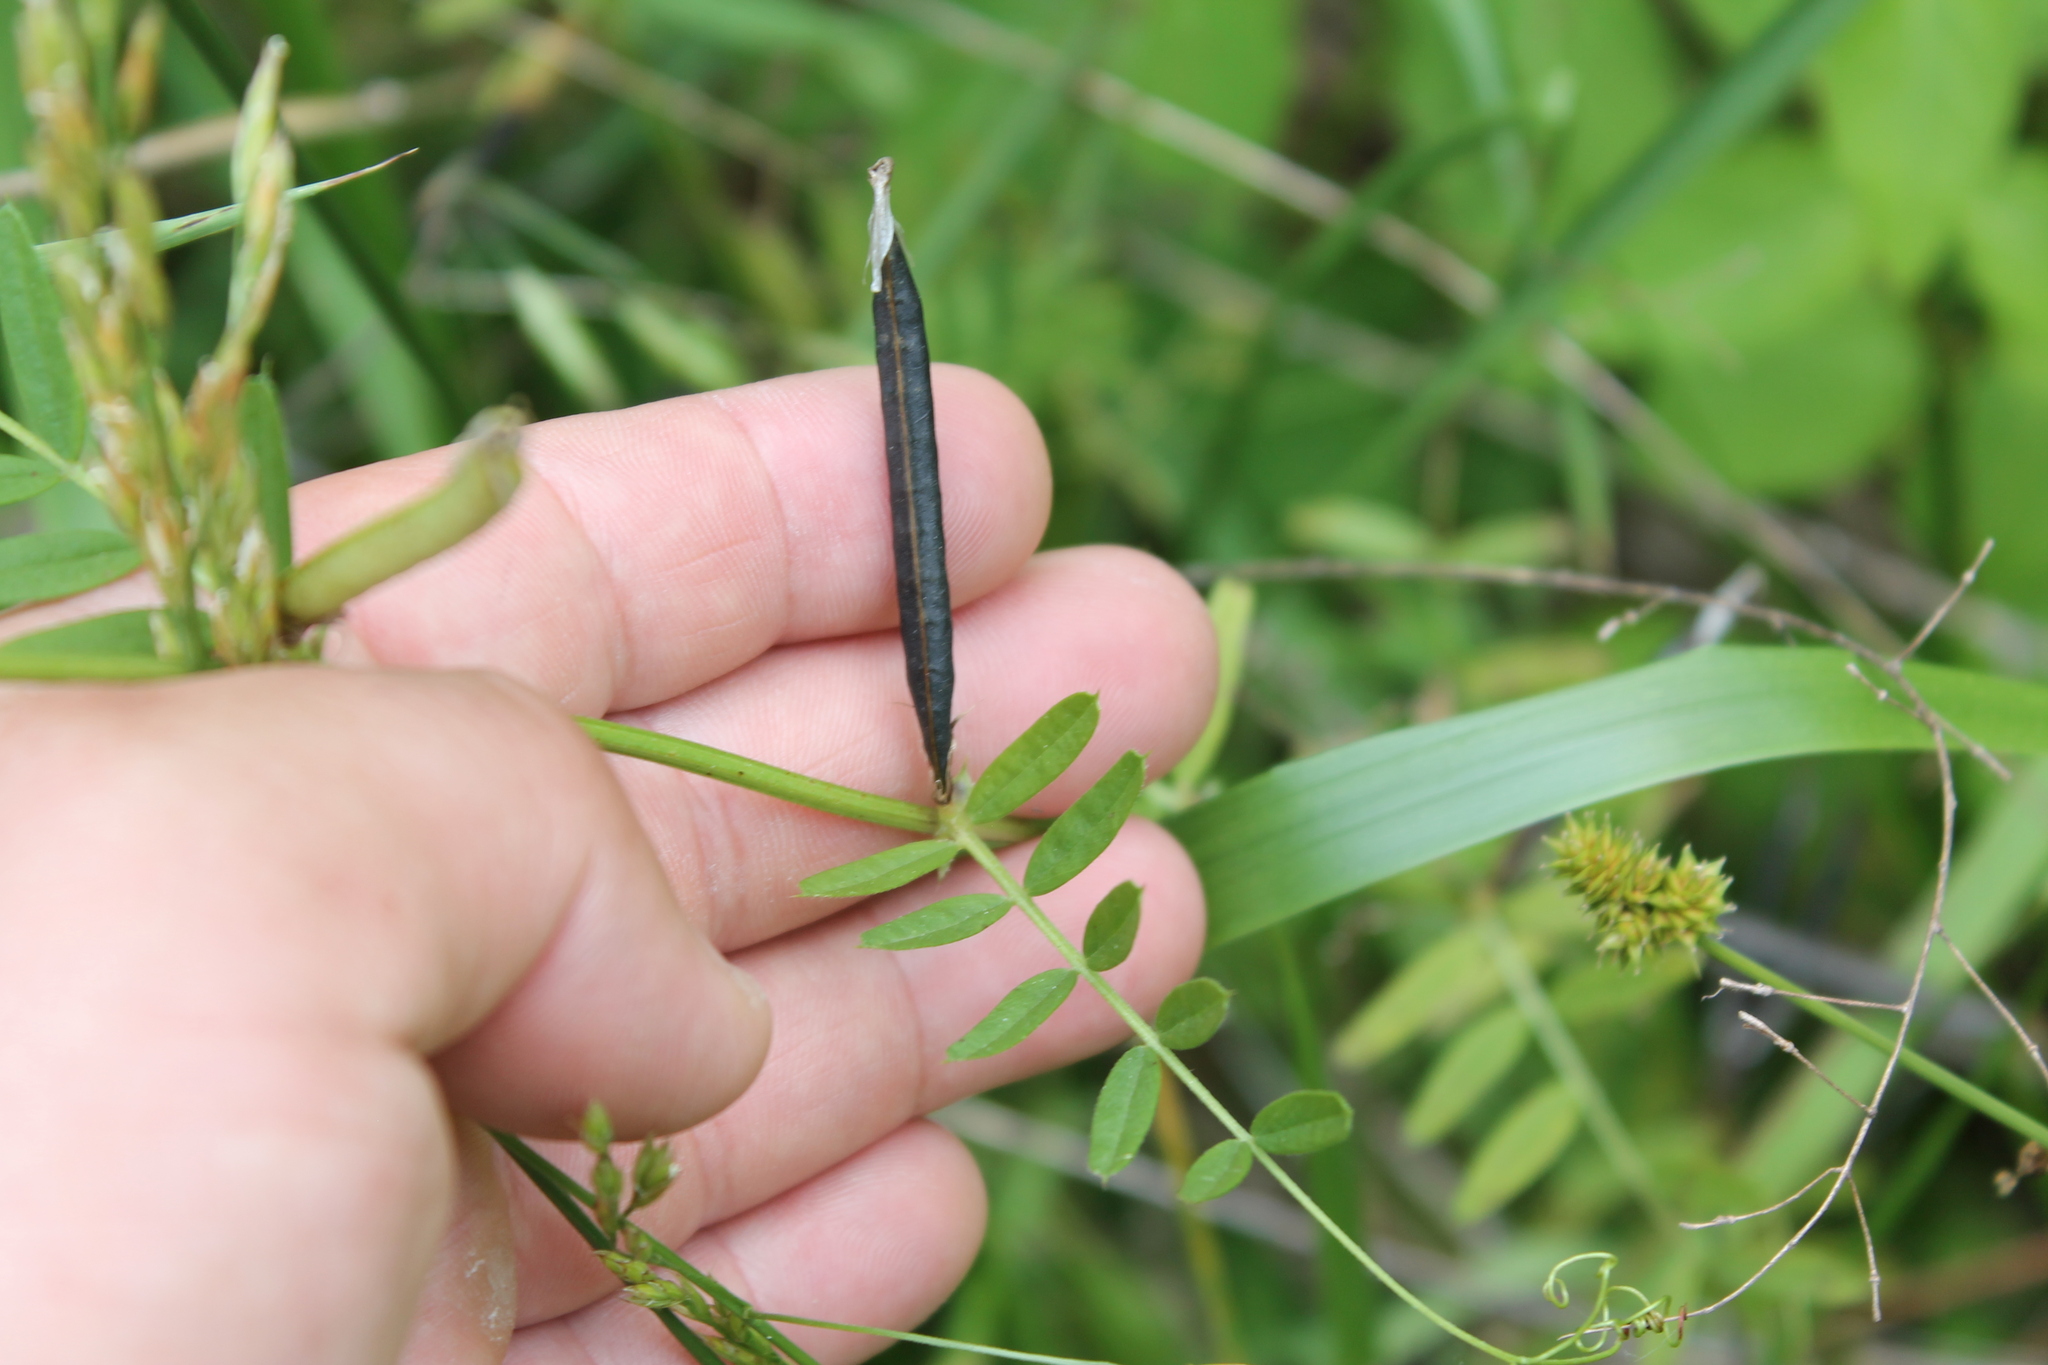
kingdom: Plantae
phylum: Tracheophyta
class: Magnoliopsida
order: Fabales
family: Fabaceae
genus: Vicia
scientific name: Vicia sativa
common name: Garden vetch
